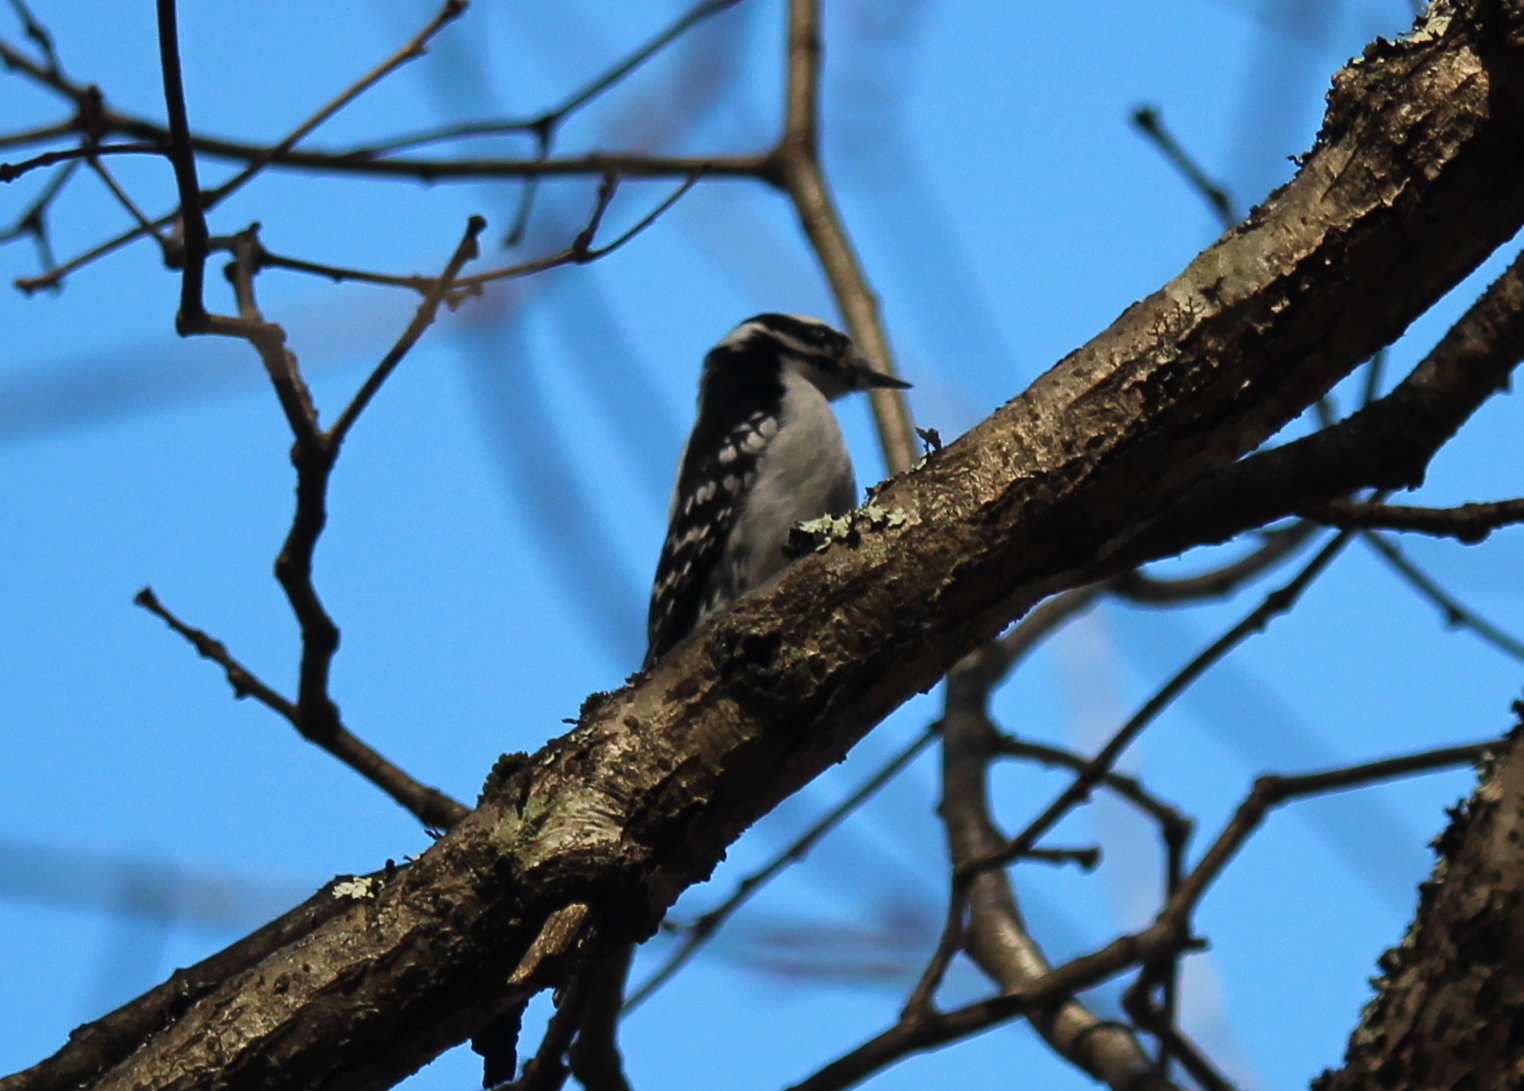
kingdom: Animalia
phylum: Chordata
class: Aves
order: Piciformes
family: Picidae
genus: Dryobates
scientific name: Dryobates pubescens
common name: Downy woodpecker
